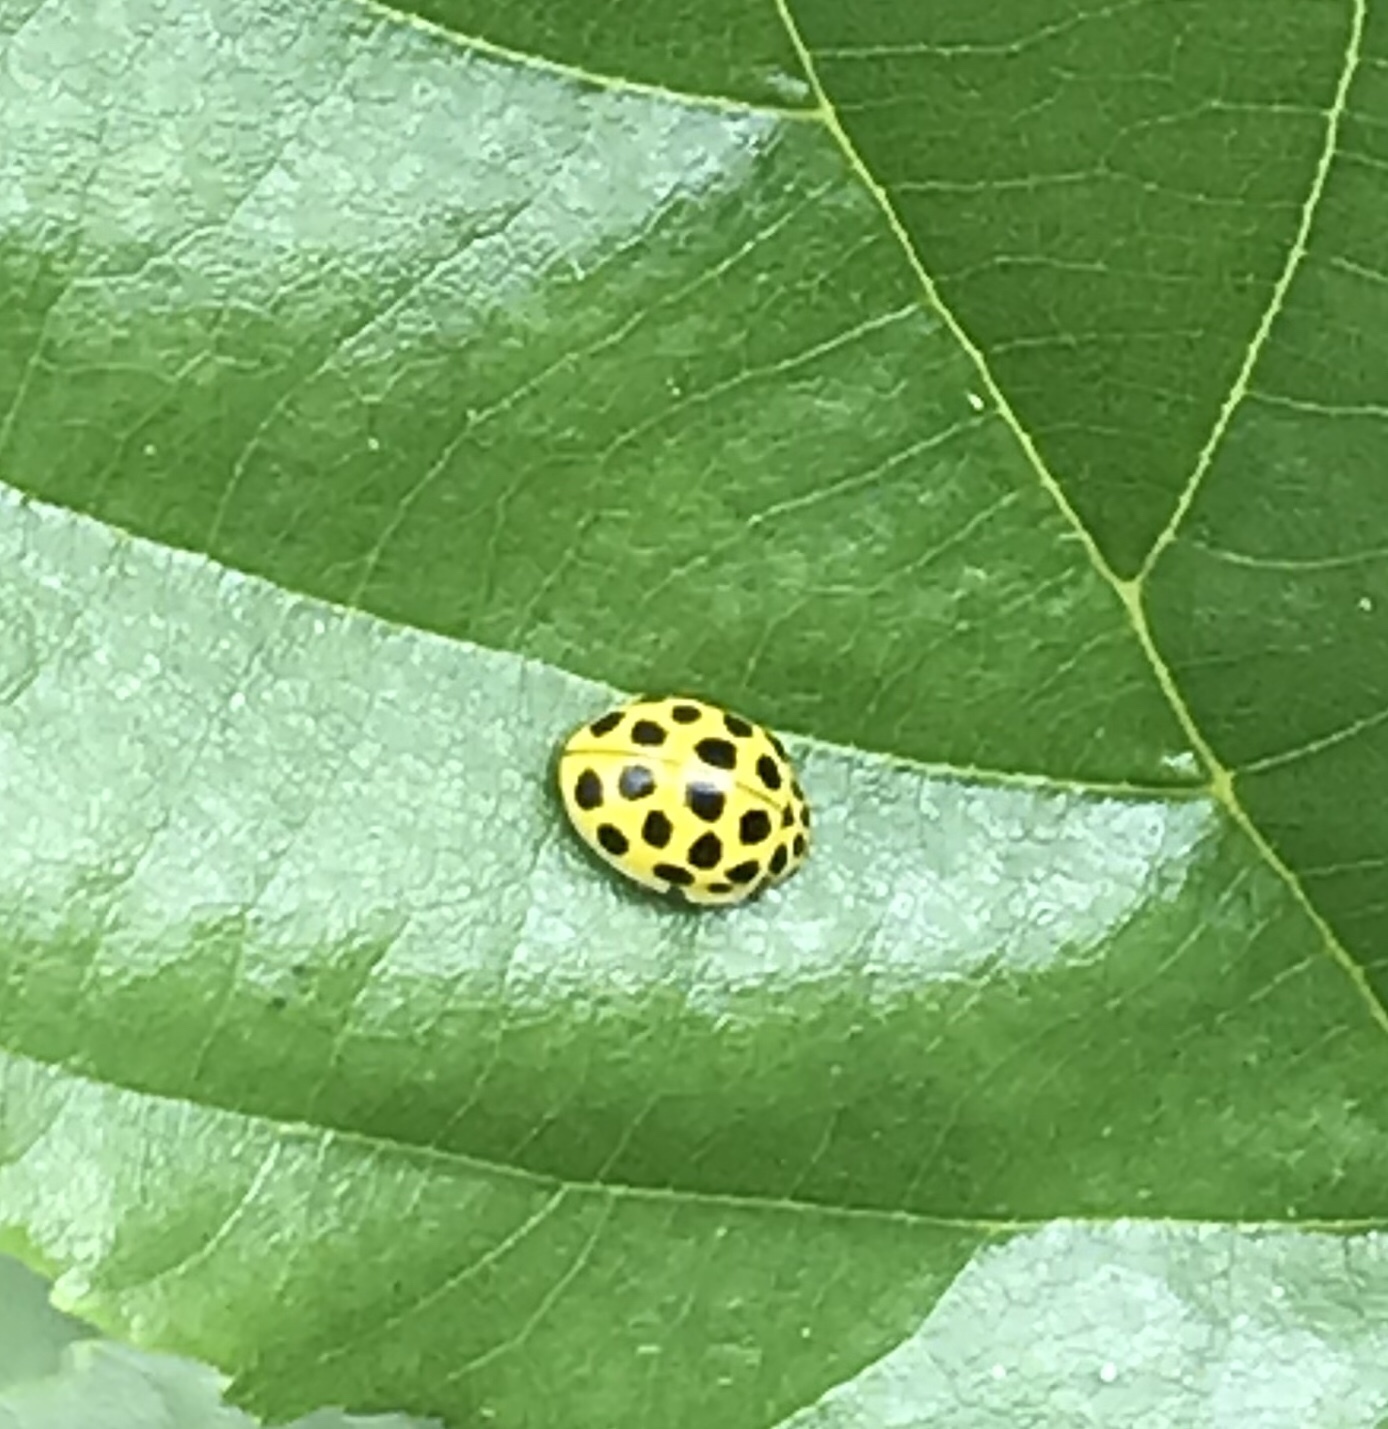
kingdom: Animalia
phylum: Arthropoda
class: Insecta
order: Coleoptera
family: Coccinellidae
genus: Psyllobora
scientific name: Psyllobora vigintiduopunctata
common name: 22-spot ladybird
